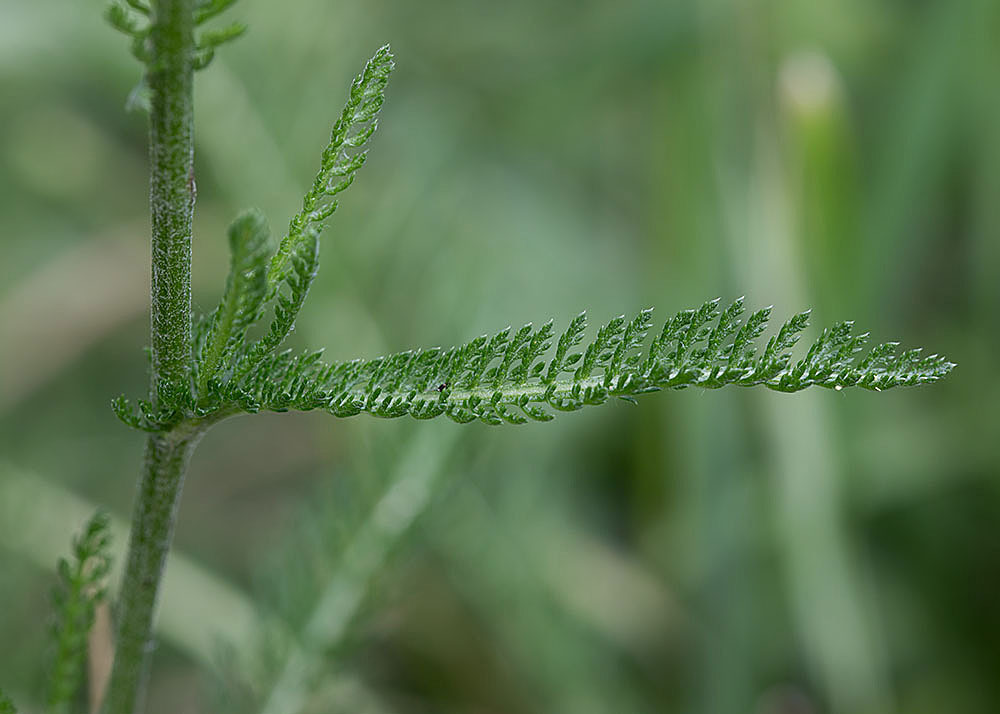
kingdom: Plantae
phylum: Tracheophyta
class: Magnoliopsida
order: Asterales
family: Asteraceae
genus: Achillea
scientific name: Achillea millefolium
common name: Yarrow
